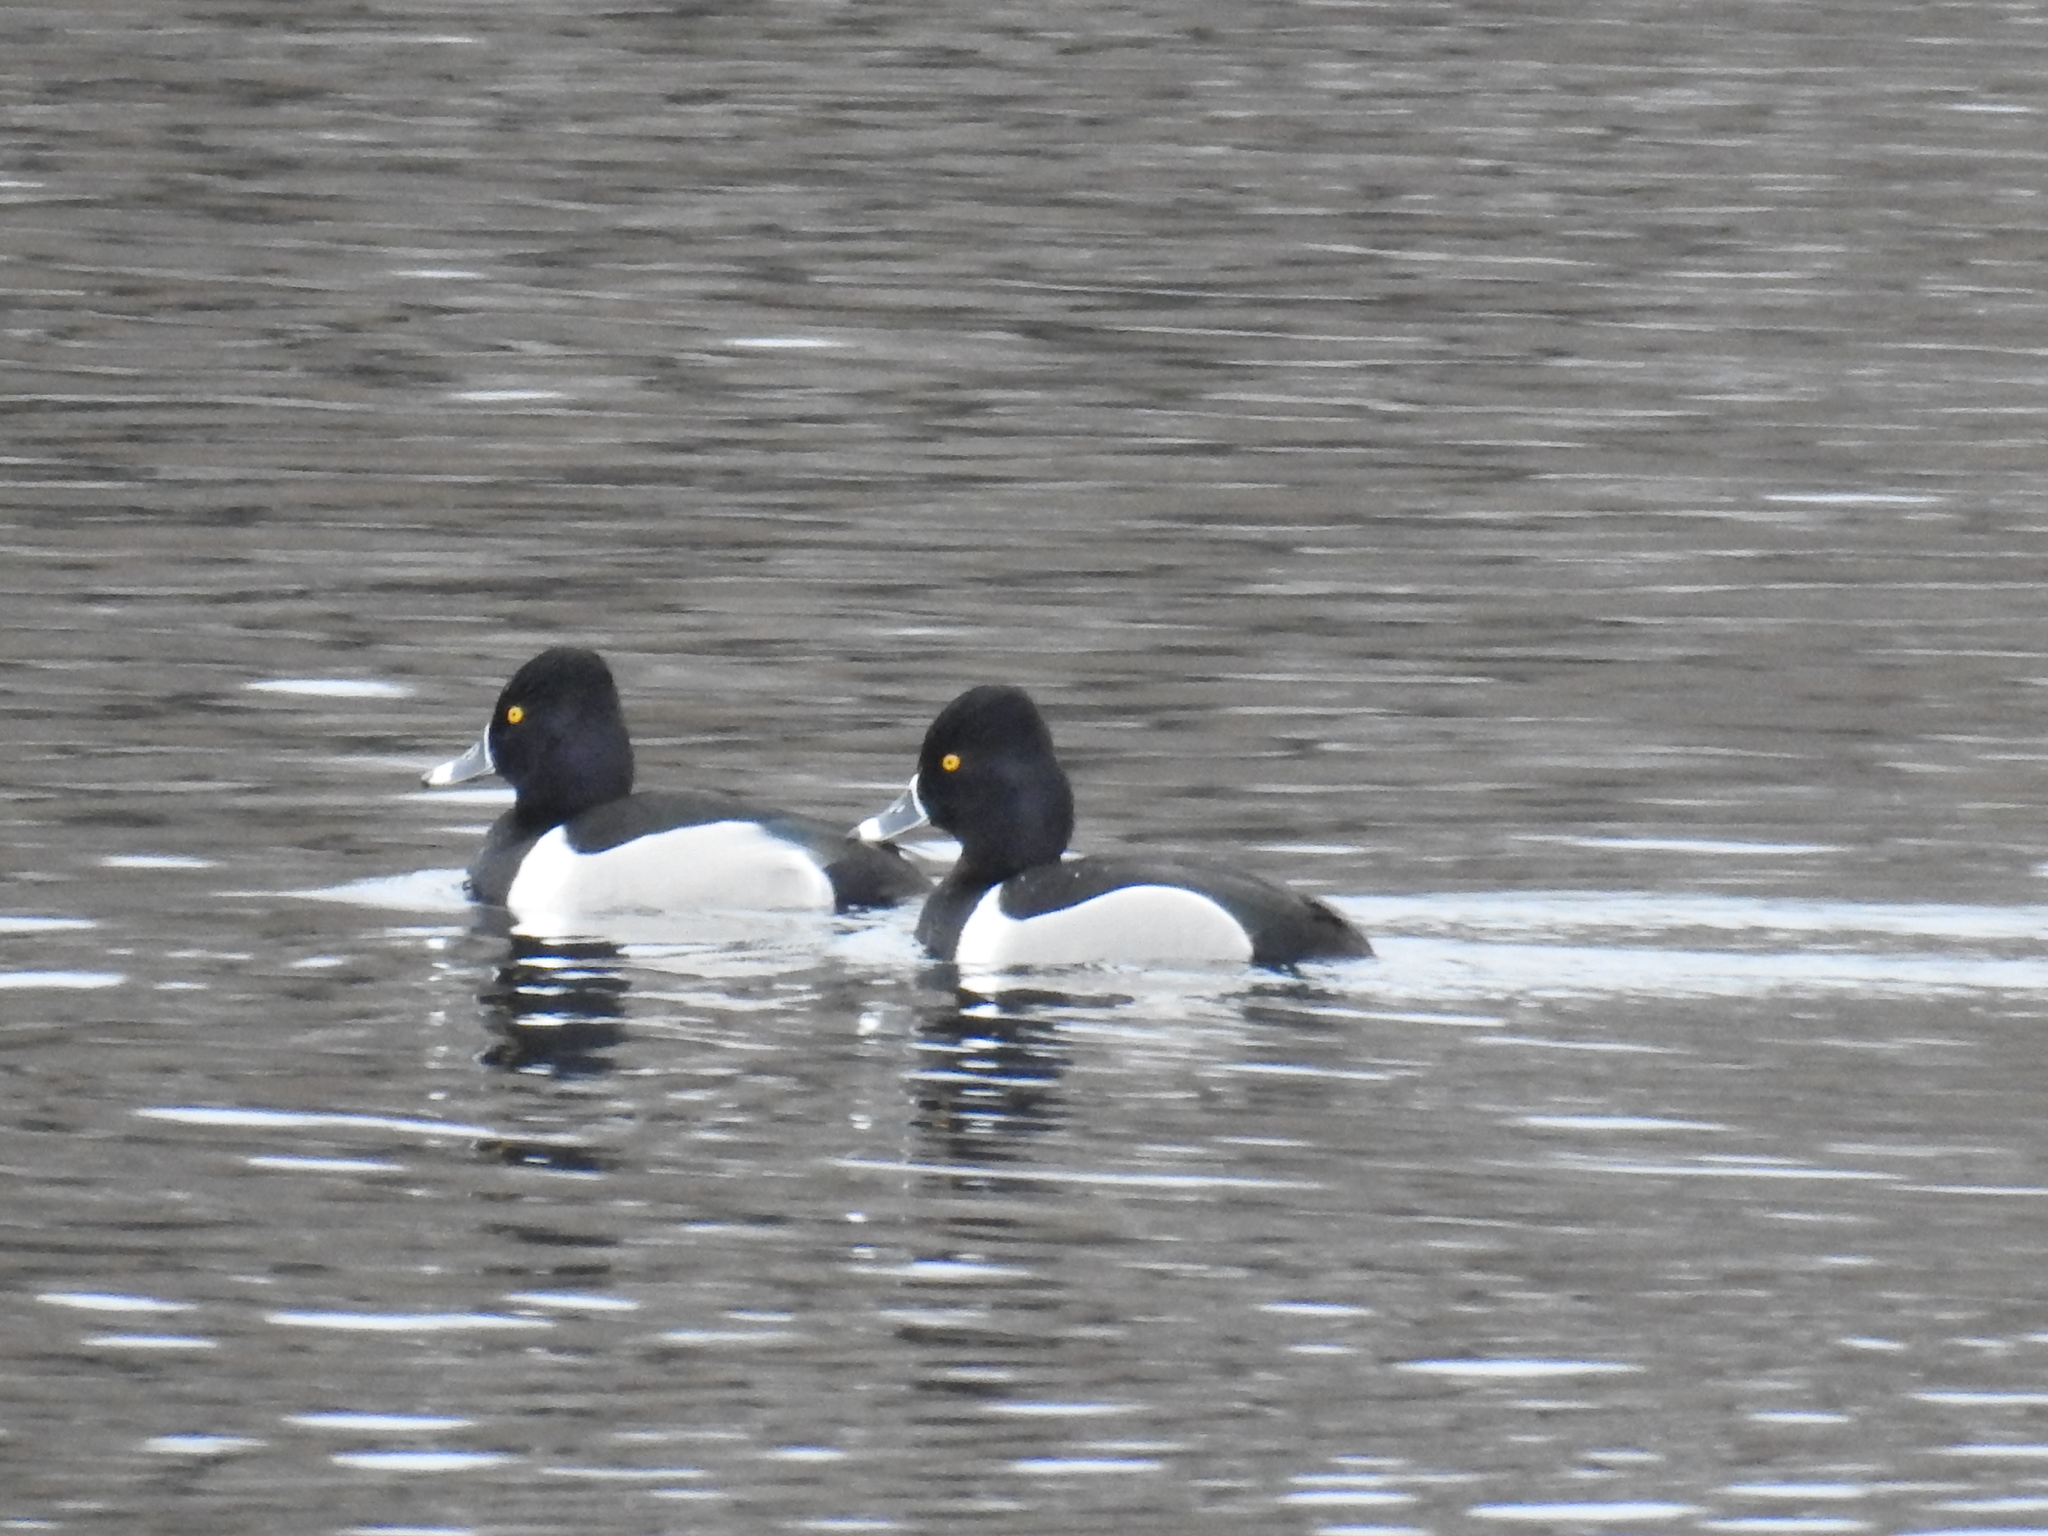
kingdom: Animalia
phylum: Chordata
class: Aves
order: Anseriformes
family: Anatidae
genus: Aythya
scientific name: Aythya collaris
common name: Ring-necked duck
